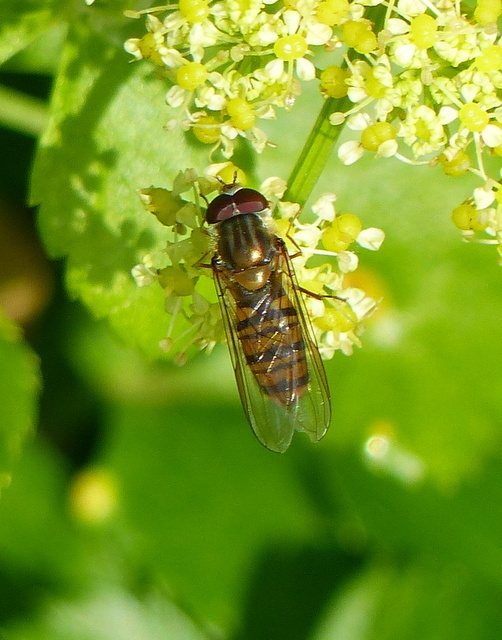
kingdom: Animalia
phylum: Arthropoda
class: Insecta
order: Diptera
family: Syrphidae
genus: Episyrphus
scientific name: Episyrphus balteatus
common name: Marmalade hoverfly
